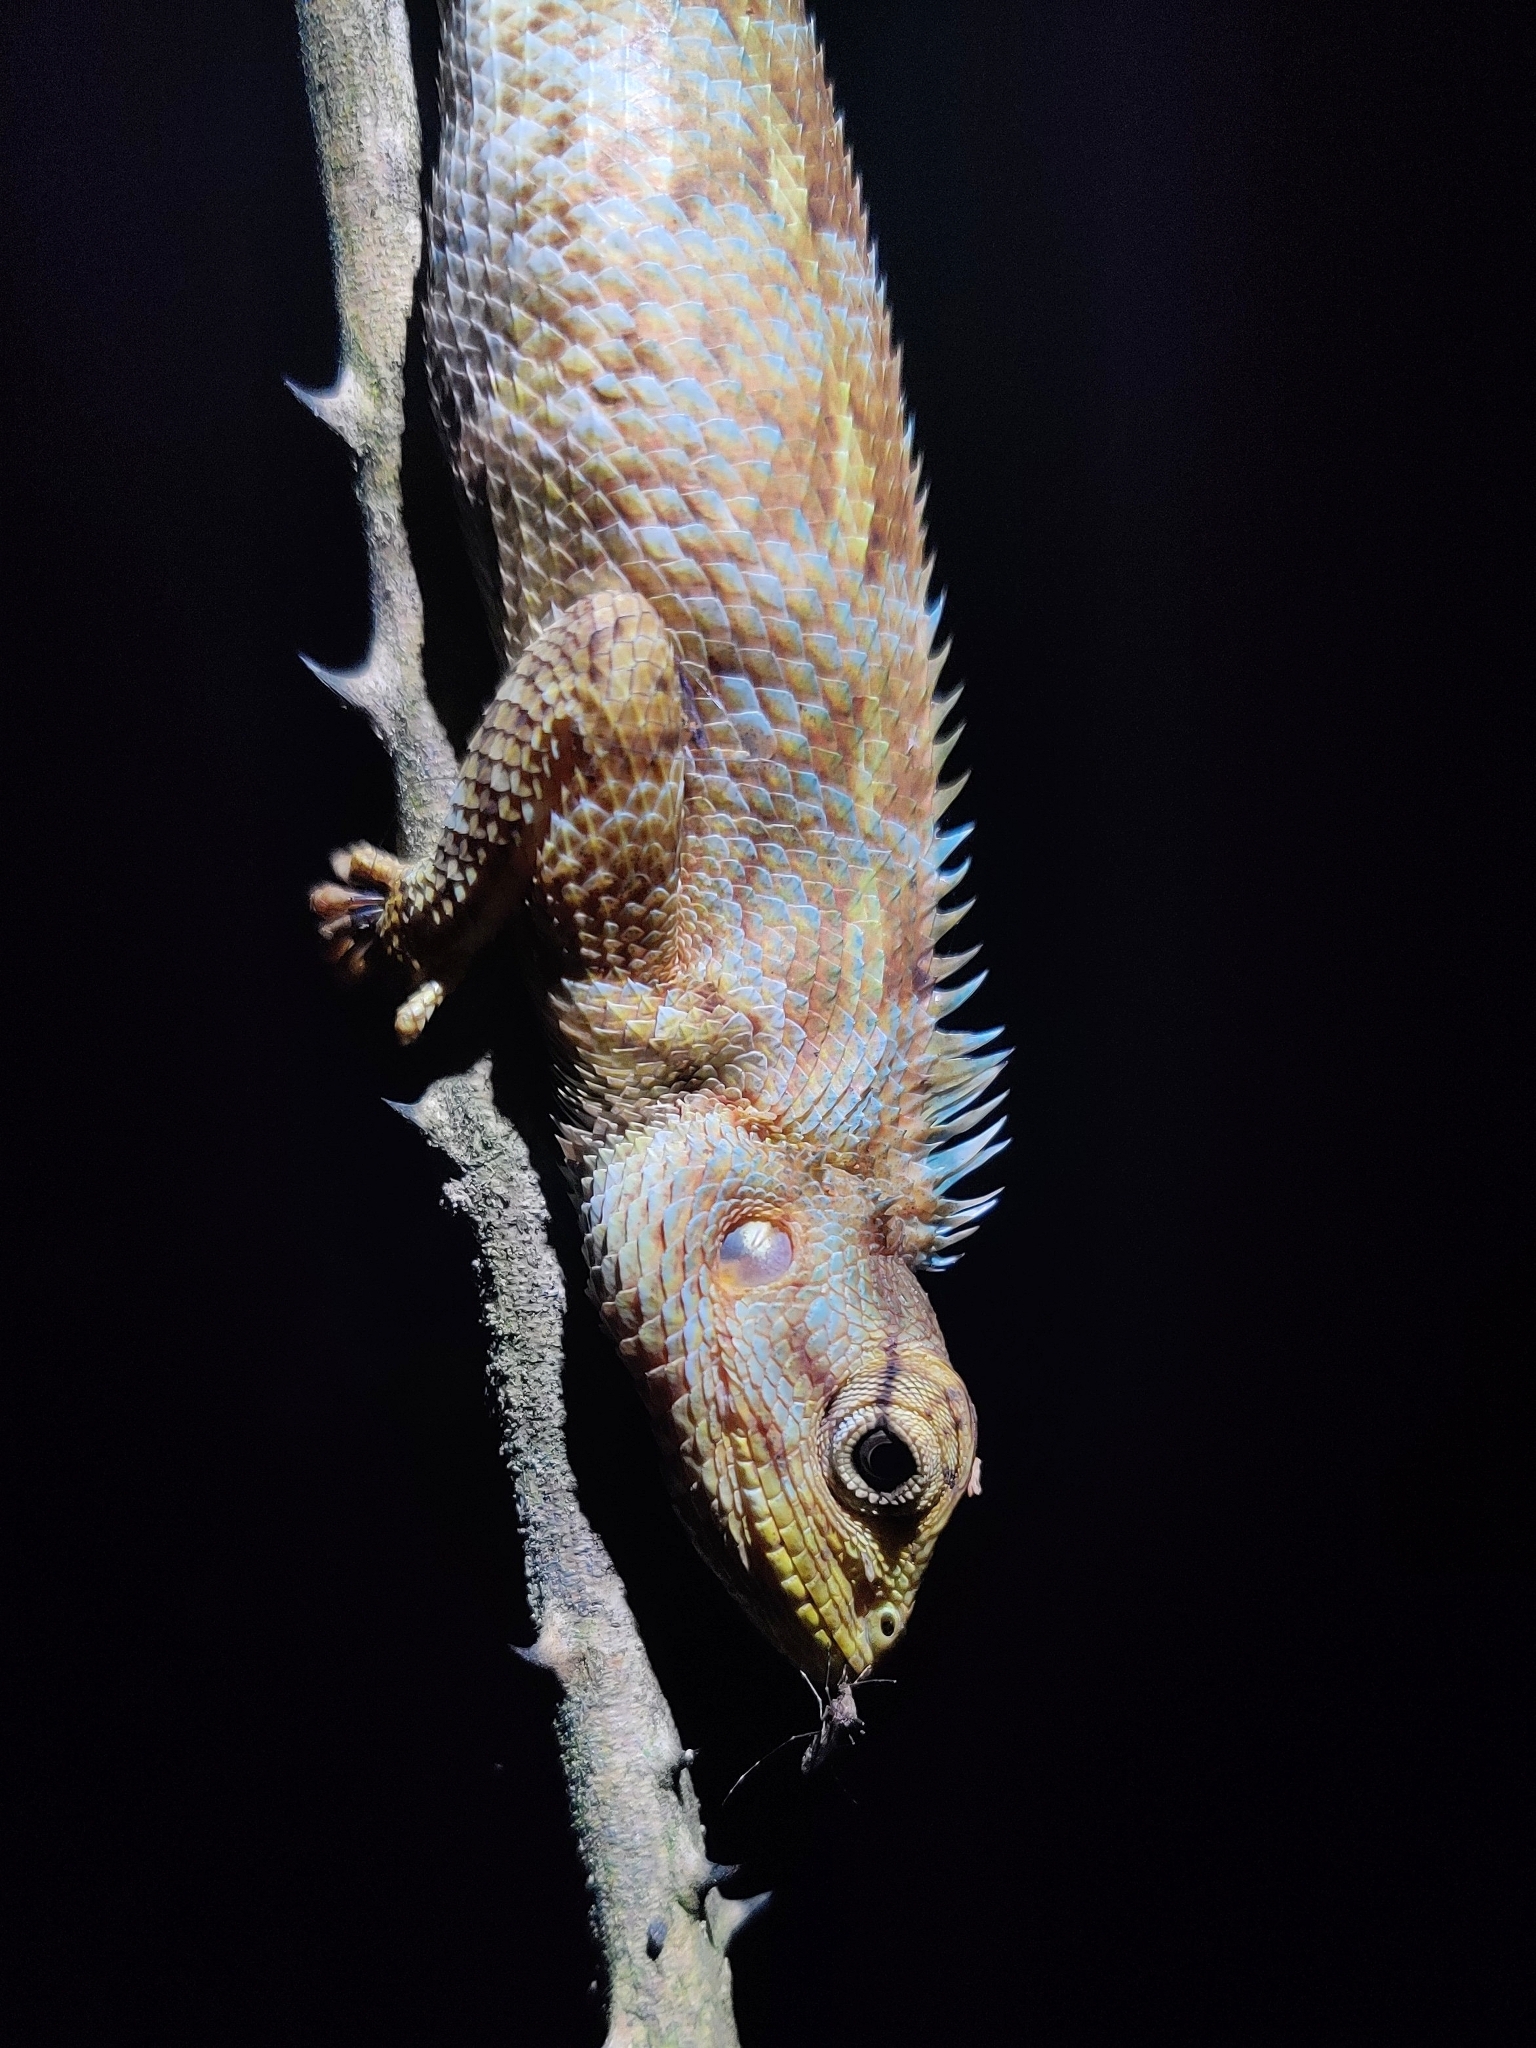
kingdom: Animalia
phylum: Chordata
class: Squamata
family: Agamidae
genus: Calotes
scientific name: Calotes versicolor
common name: Oriental garden lizard
